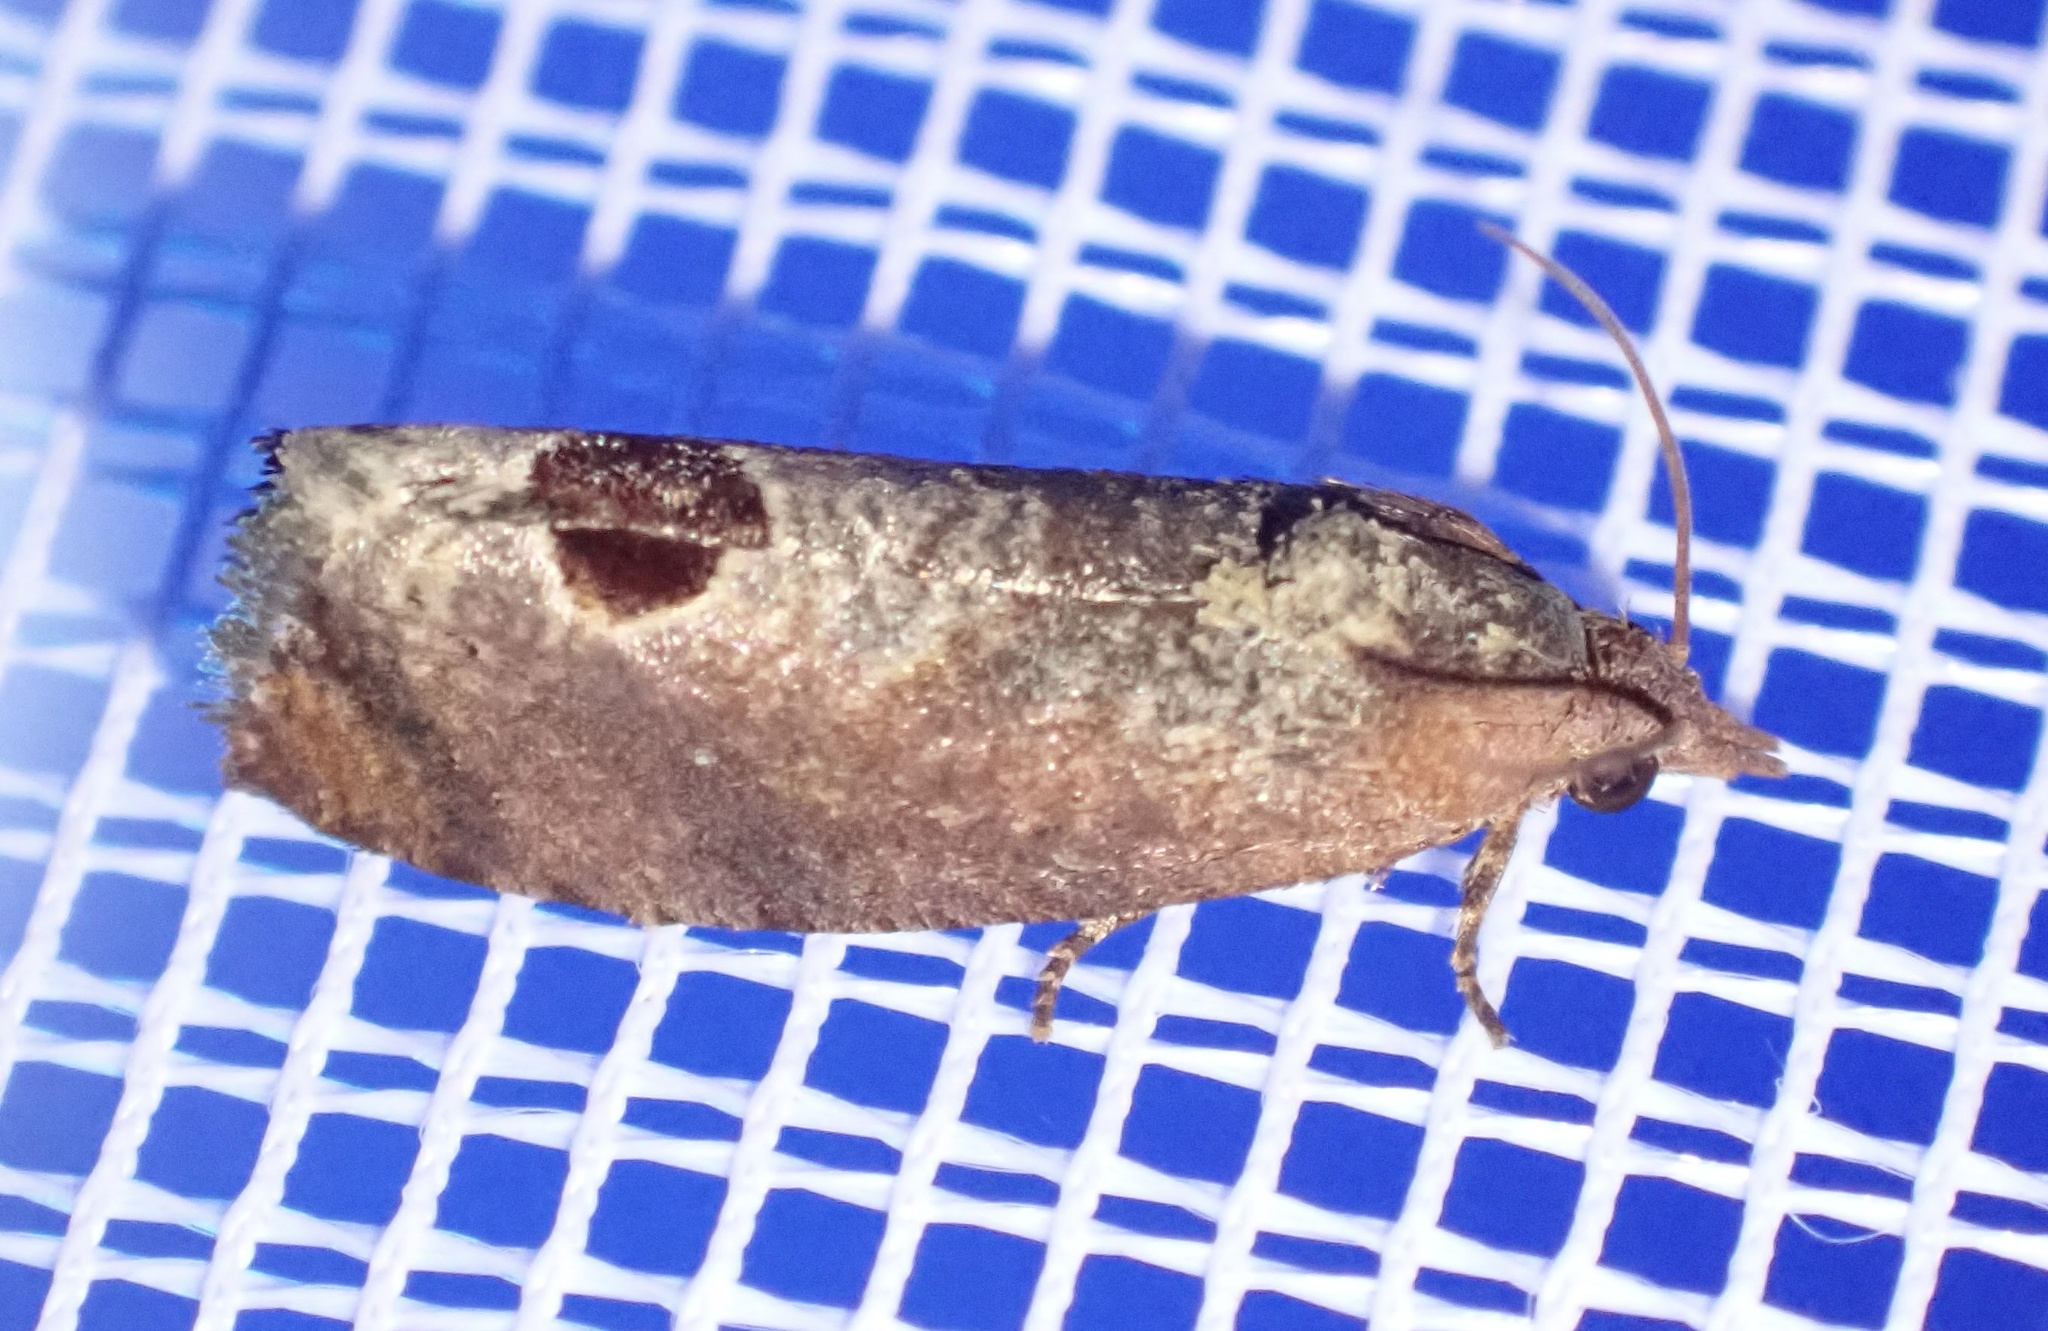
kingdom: Animalia
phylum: Arthropoda
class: Insecta
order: Lepidoptera
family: Tortricidae
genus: Cryptophlebia
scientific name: Cryptophlebia ombrodelta
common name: Litchi fruit moth
